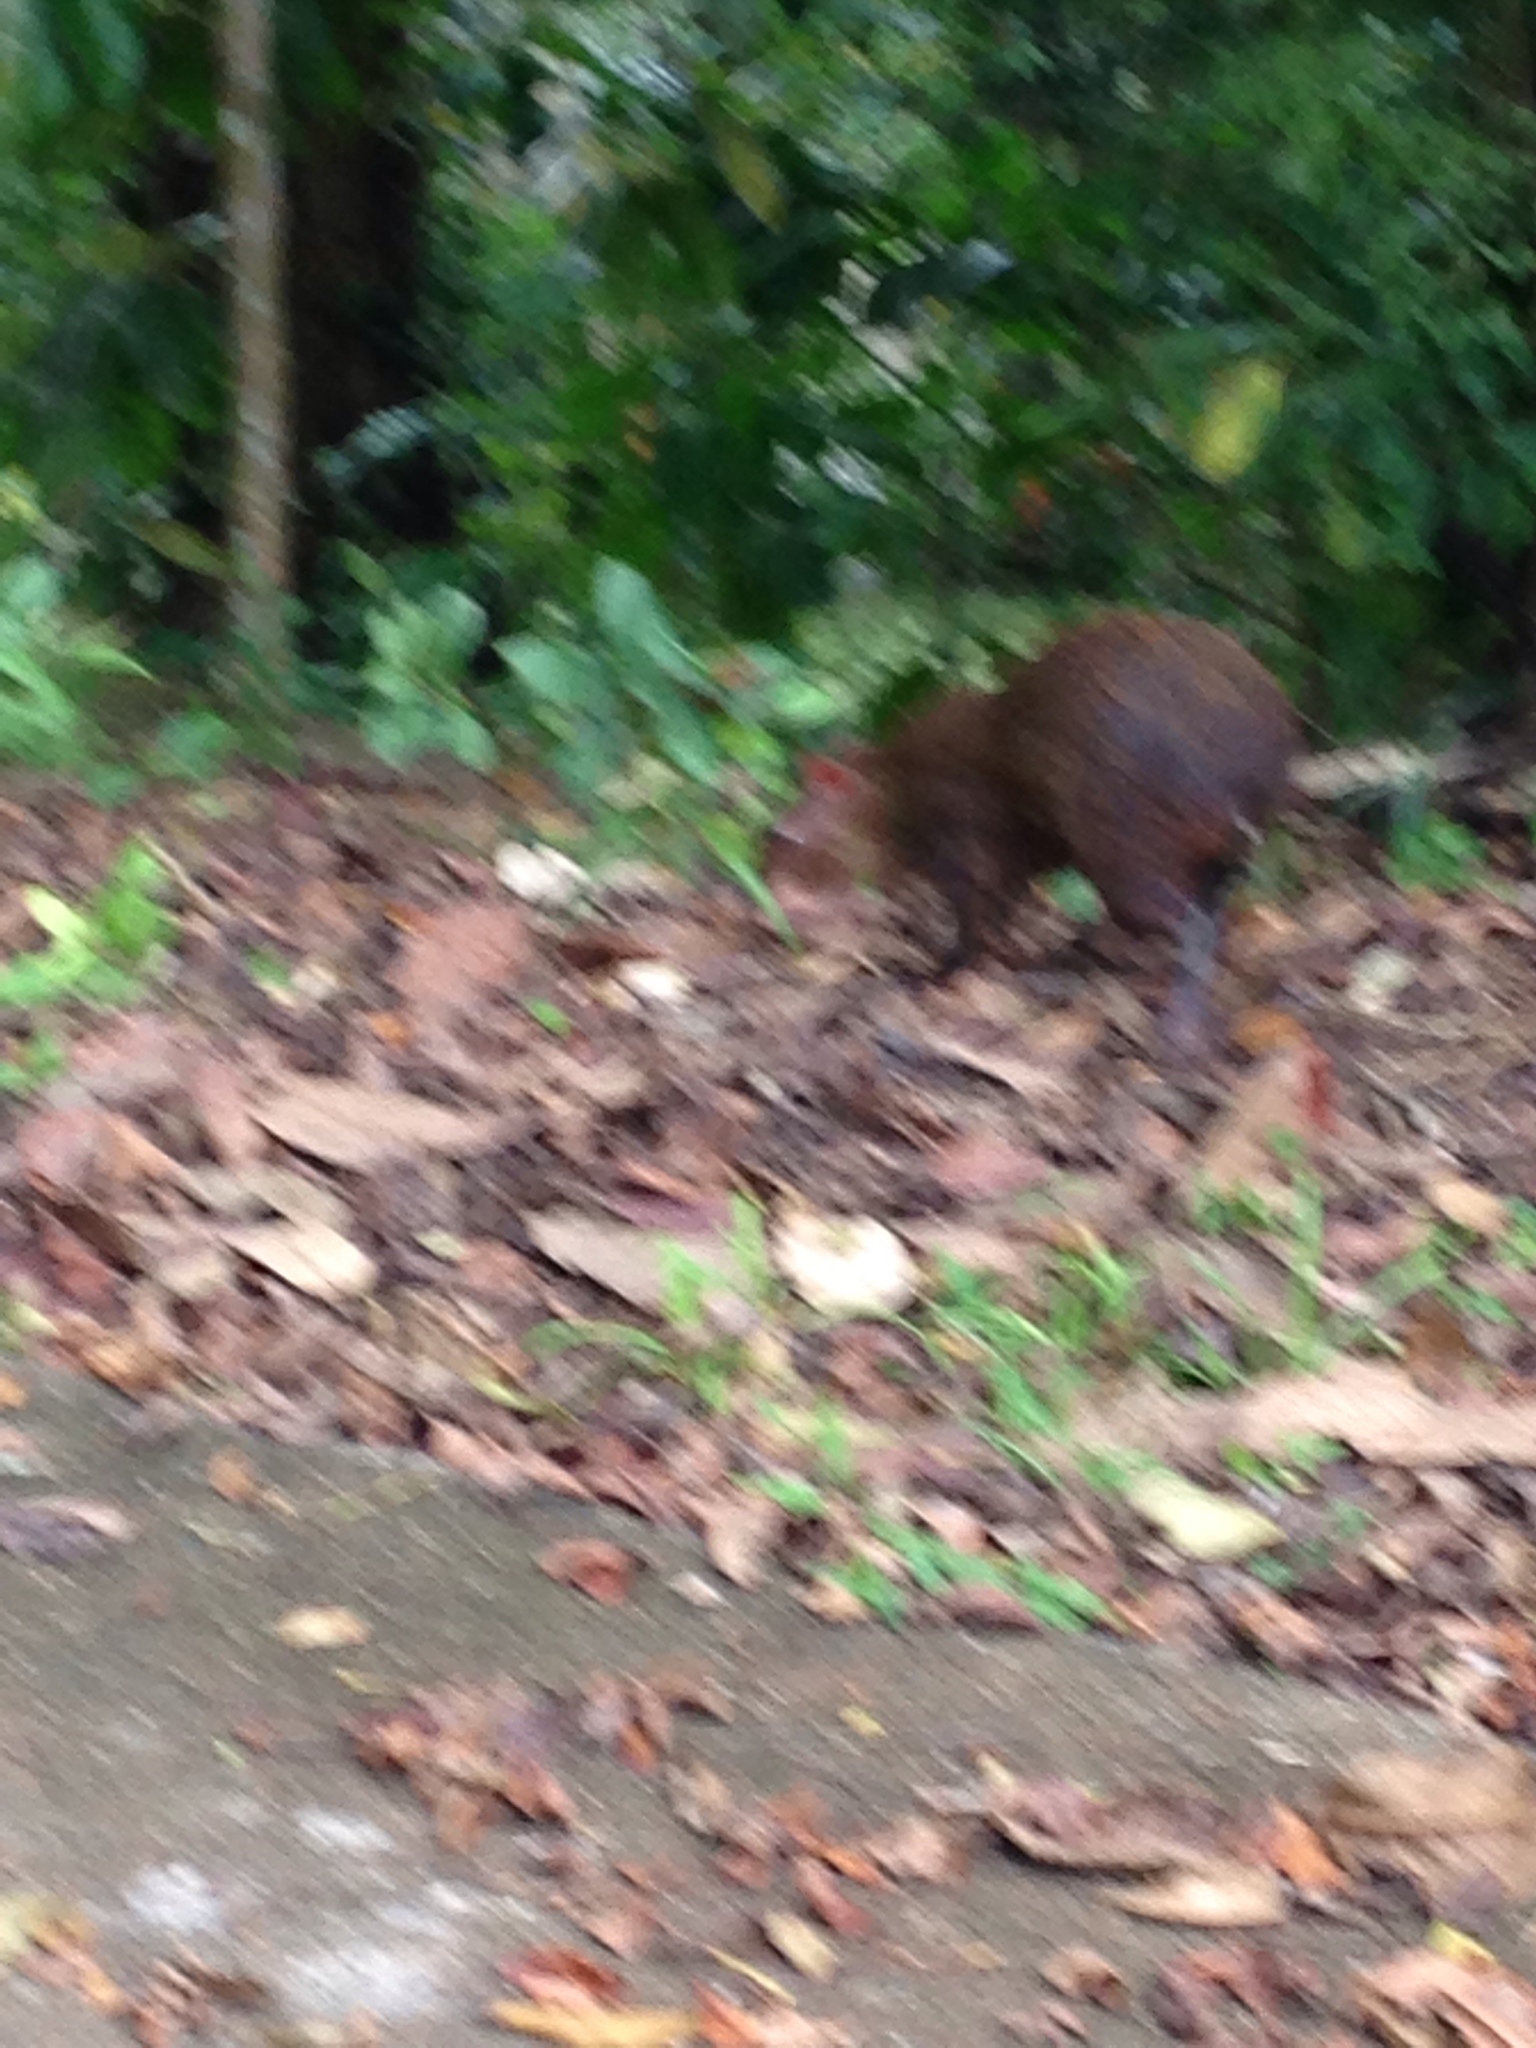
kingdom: Animalia
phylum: Chordata
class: Mammalia
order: Rodentia
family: Dasyproctidae
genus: Dasyprocta
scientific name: Dasyprocta punctata
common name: Central american agouti
